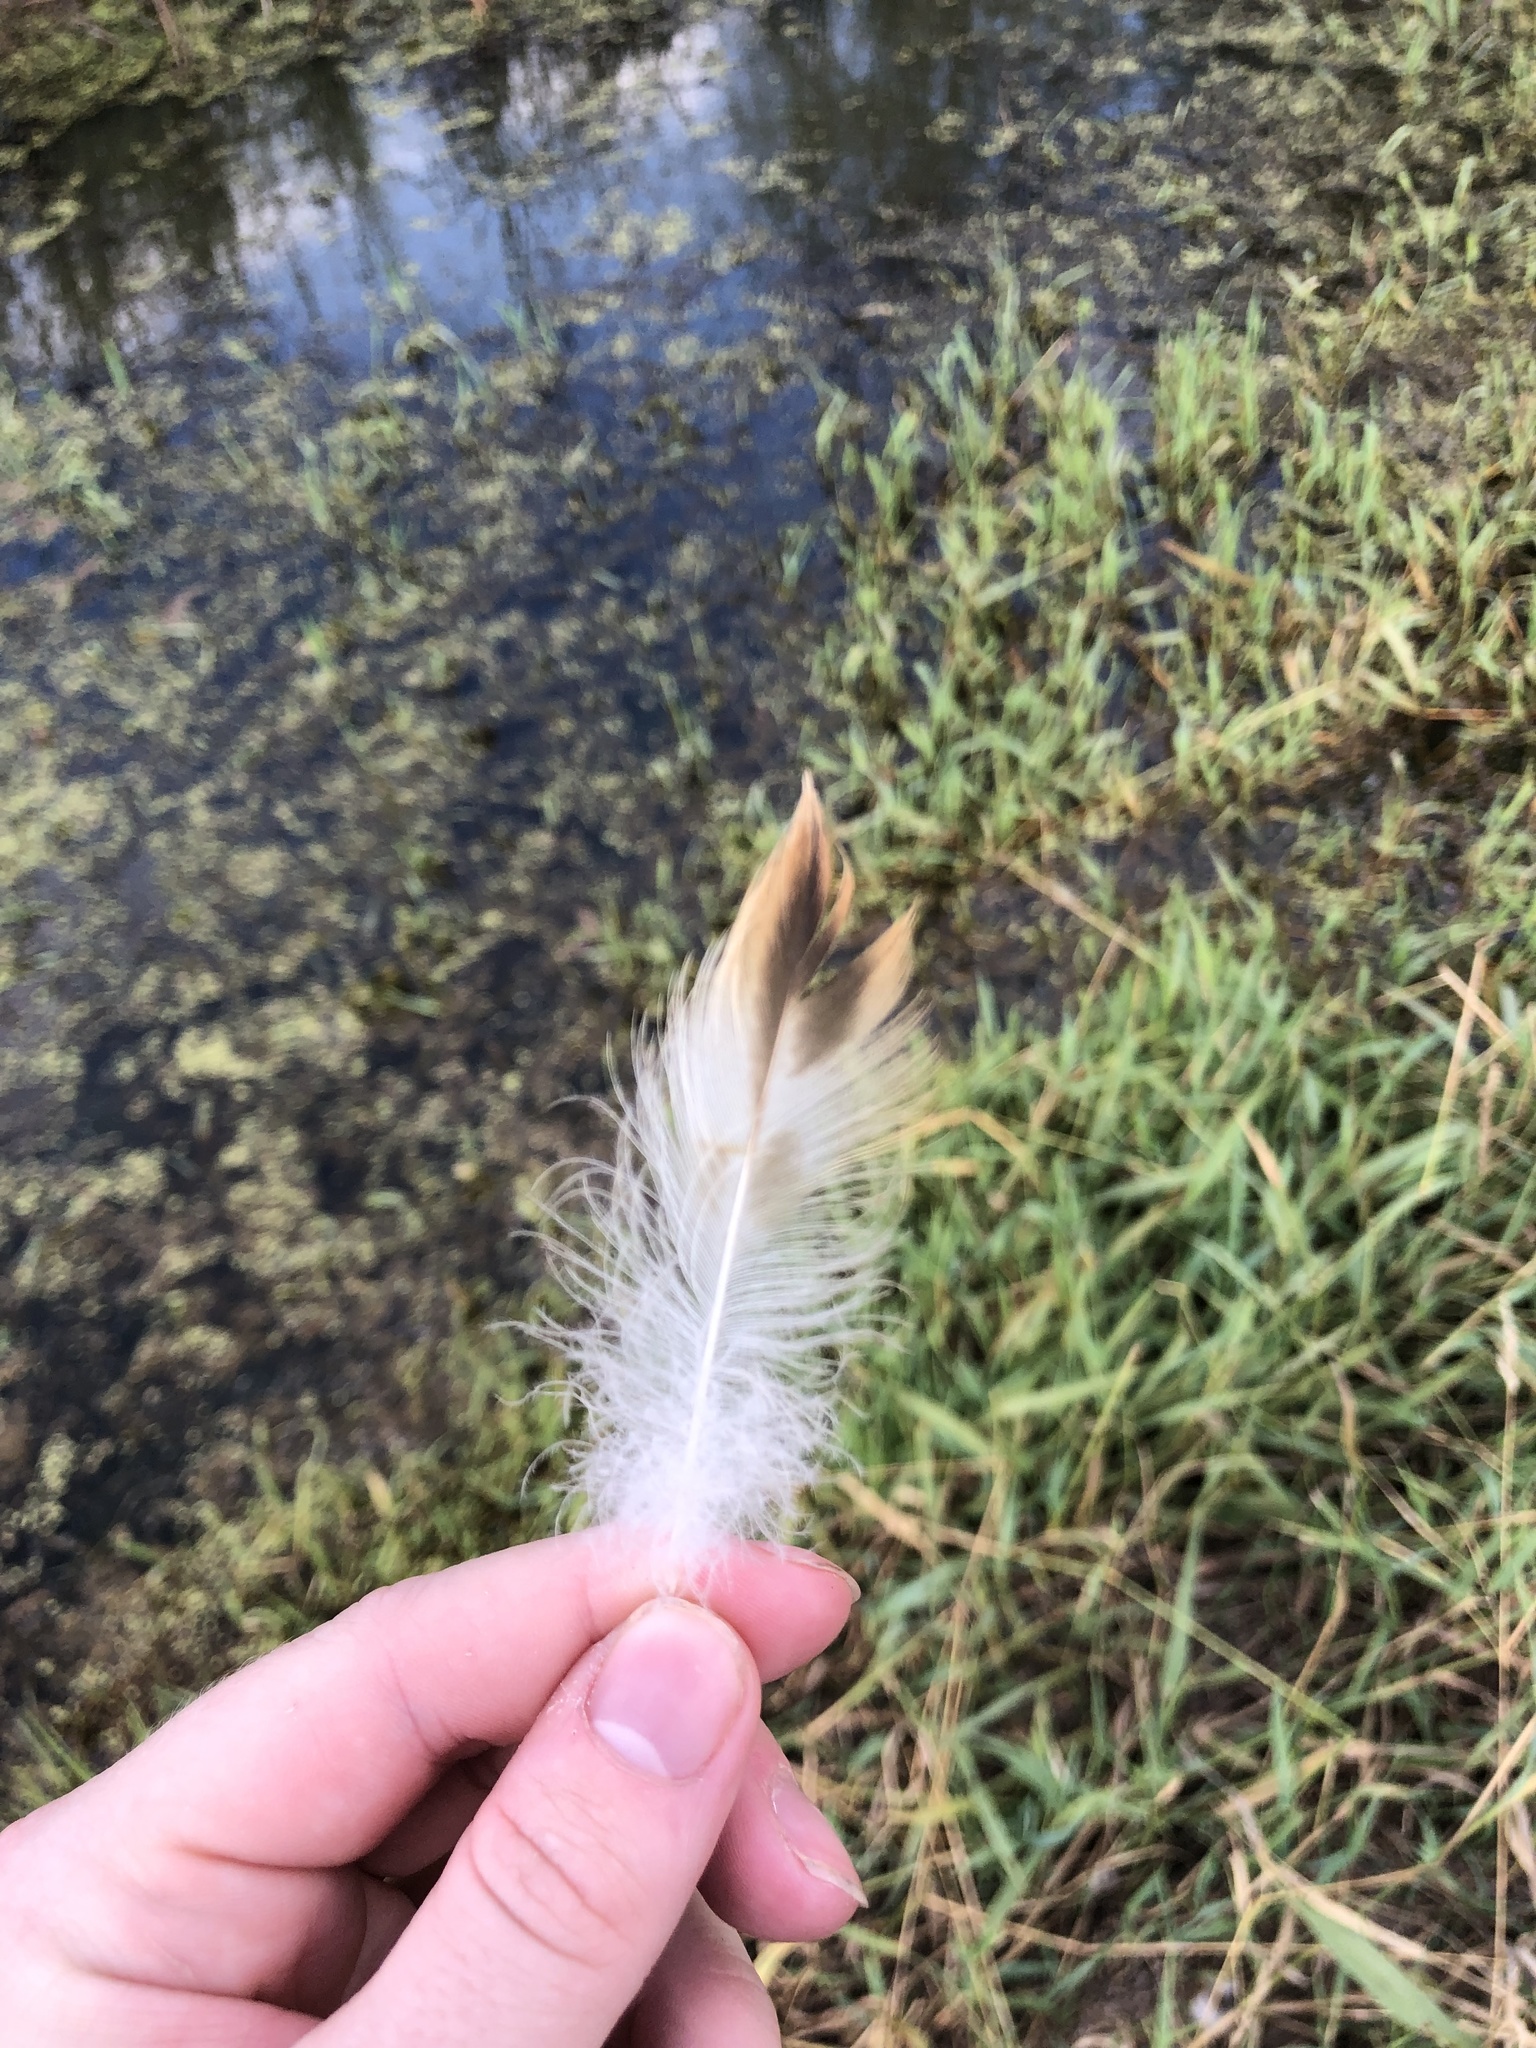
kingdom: Animalia
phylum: Chordata
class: Aves
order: Anseriformes
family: Anatidae
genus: Anas
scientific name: Anas platyrhynchos
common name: Mallard
